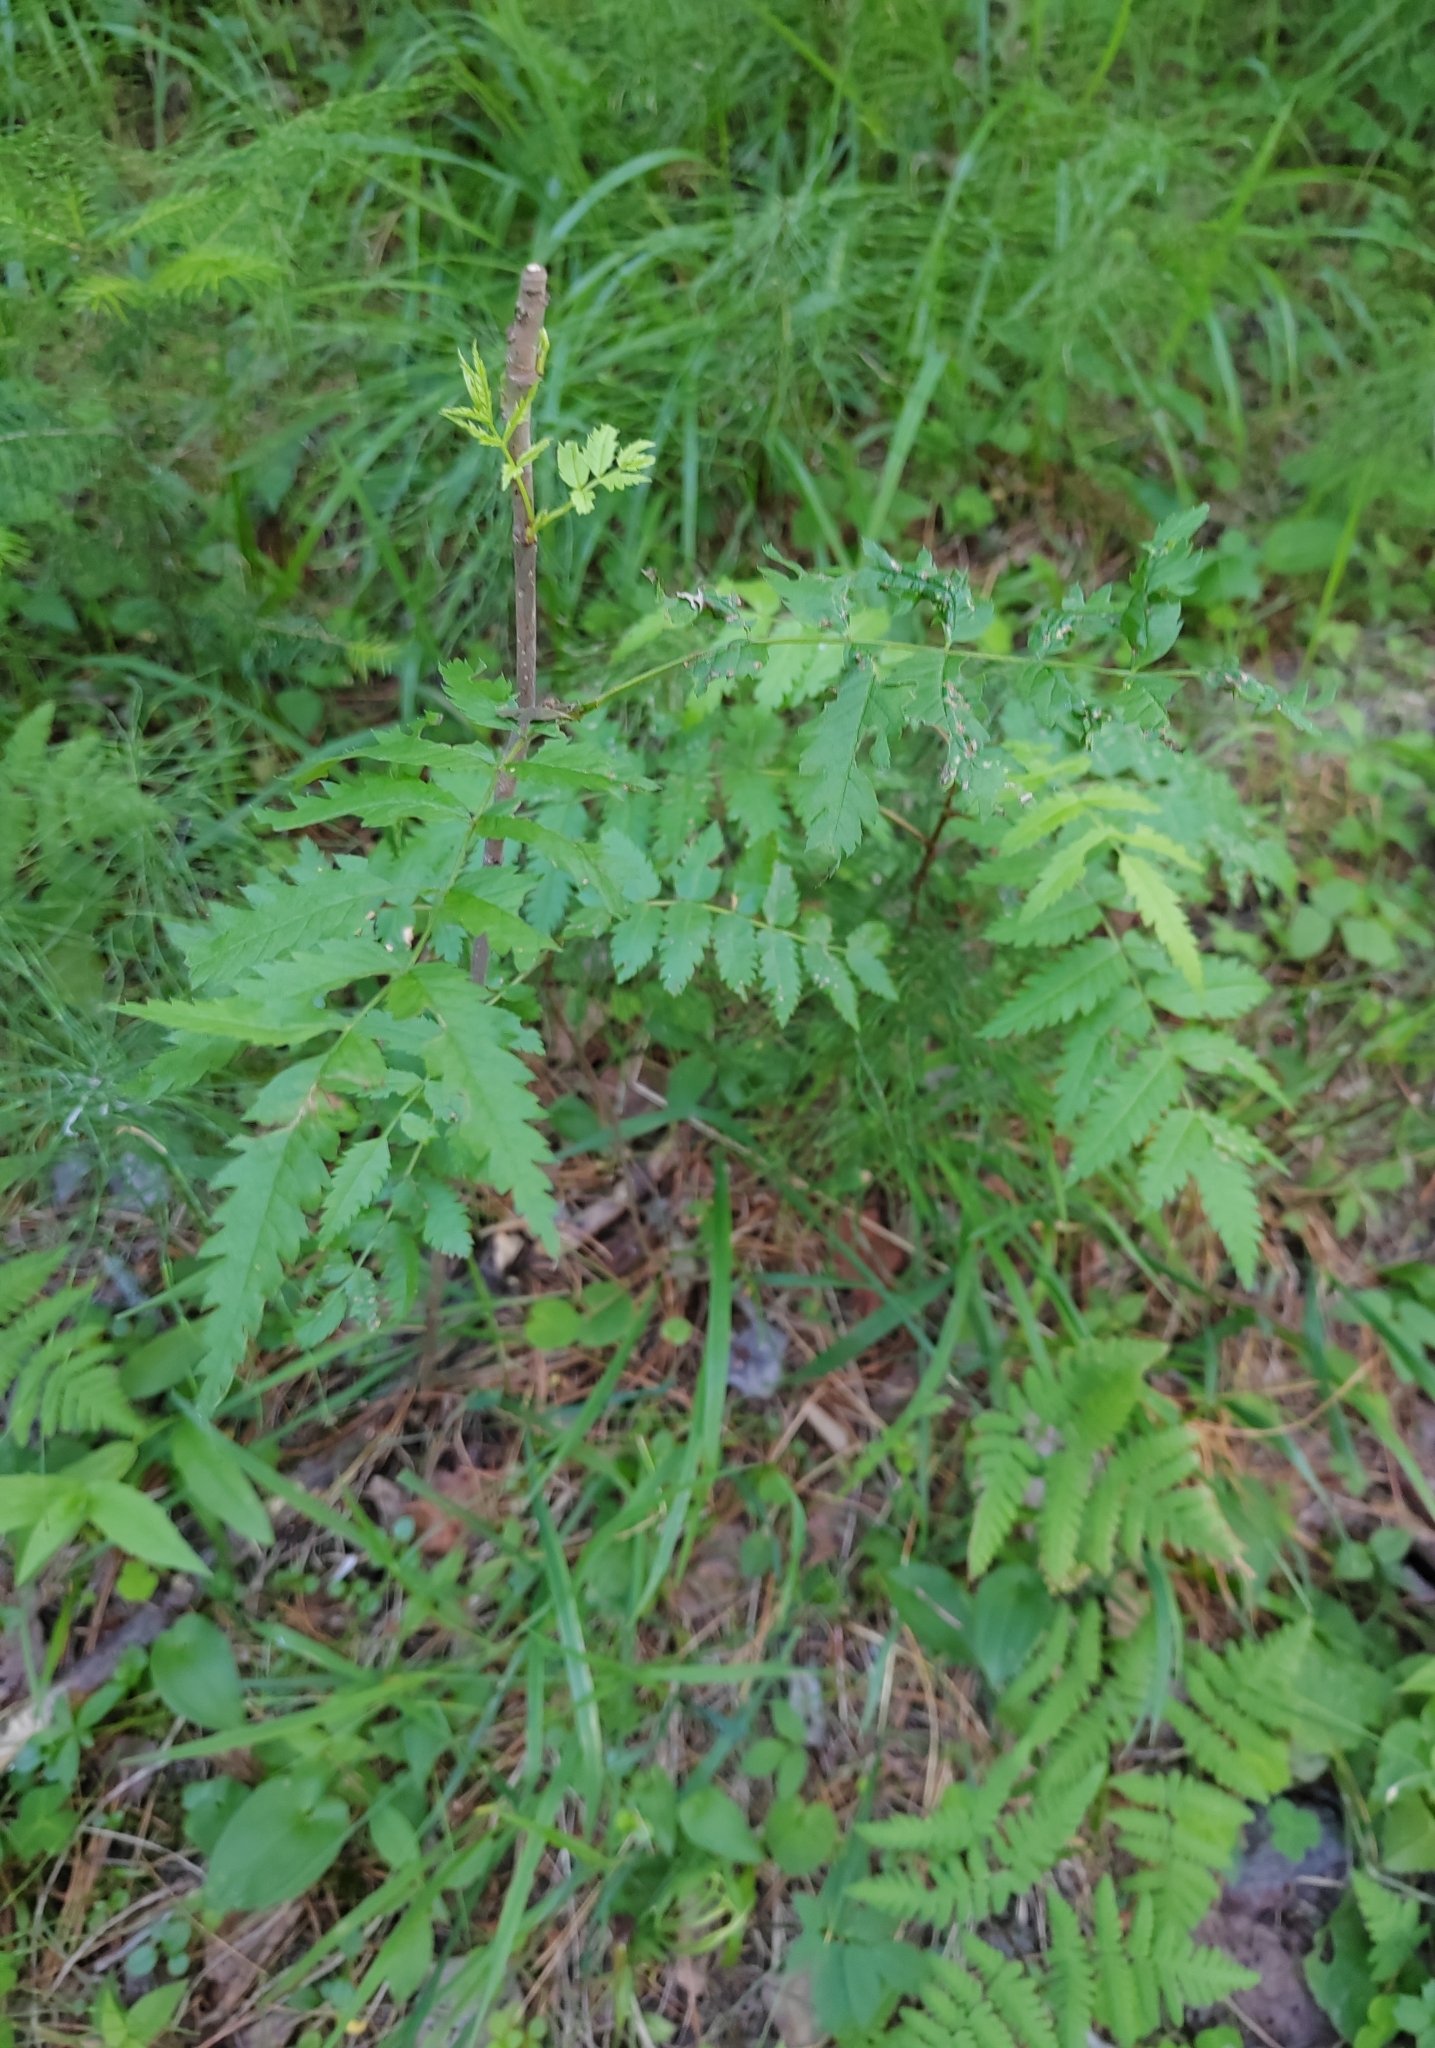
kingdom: Plantae
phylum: Tracheophyta
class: Magnoliopsida
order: Rosales
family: Rosaceae
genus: Sorbus
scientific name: Sorbus aucuparia
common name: Rowan
